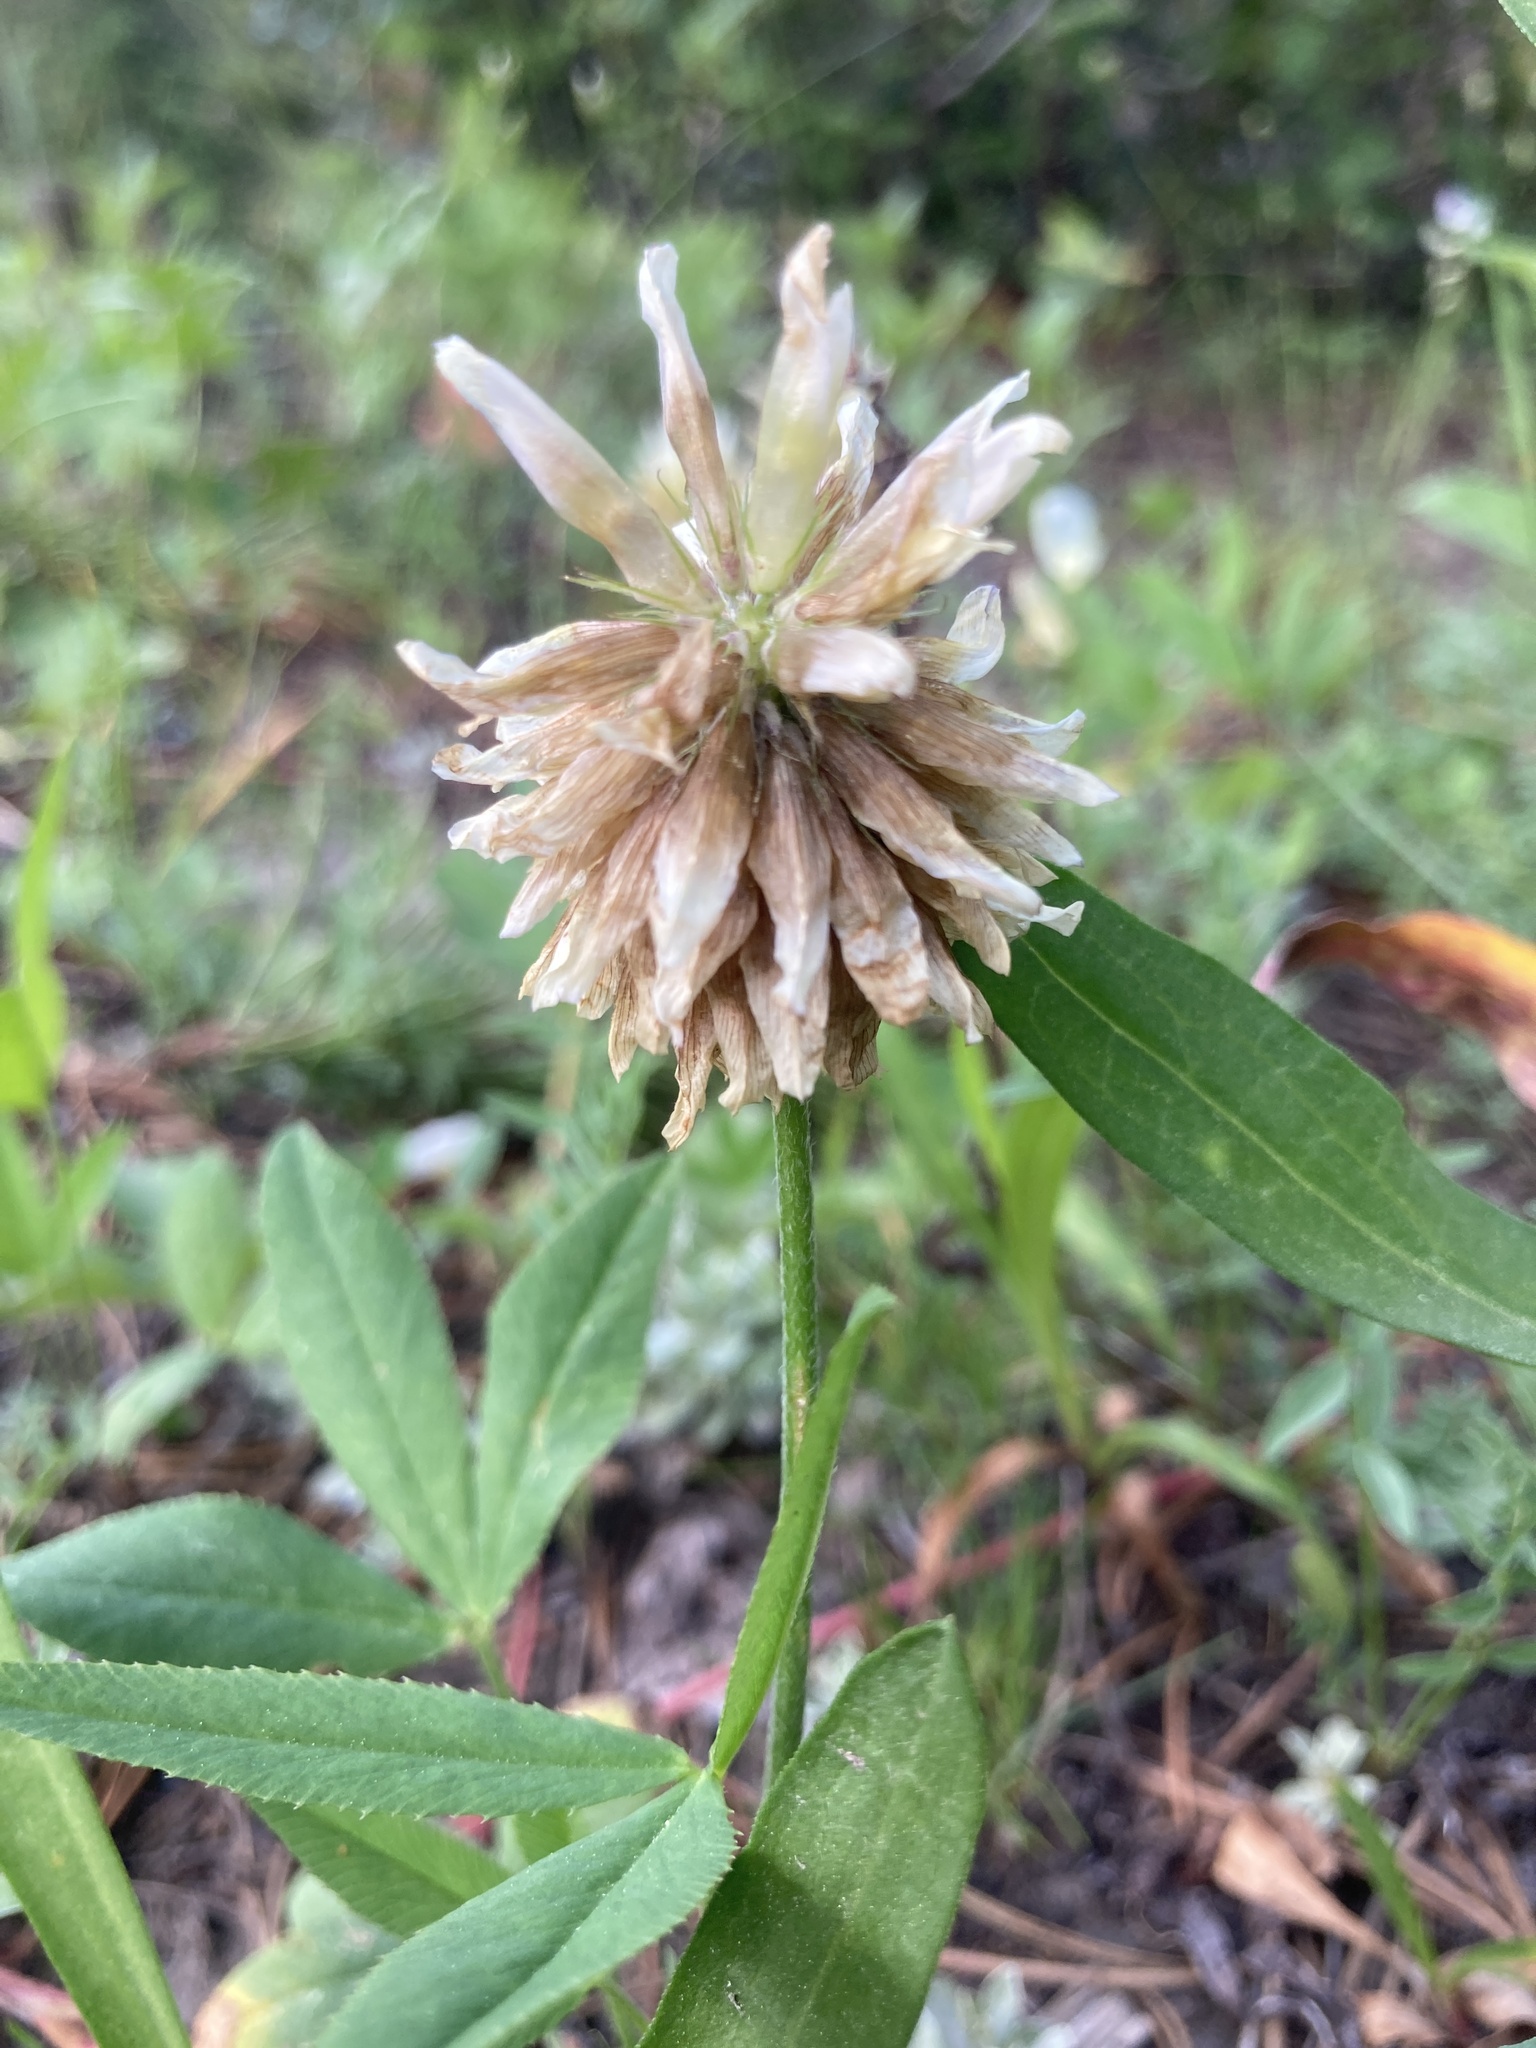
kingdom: Plantae
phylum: Tracheophyta
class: Magnoliopsida
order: Fabales
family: Fabaceae
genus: Trifolium
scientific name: Trifolium longipes
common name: Long-stalk clover
